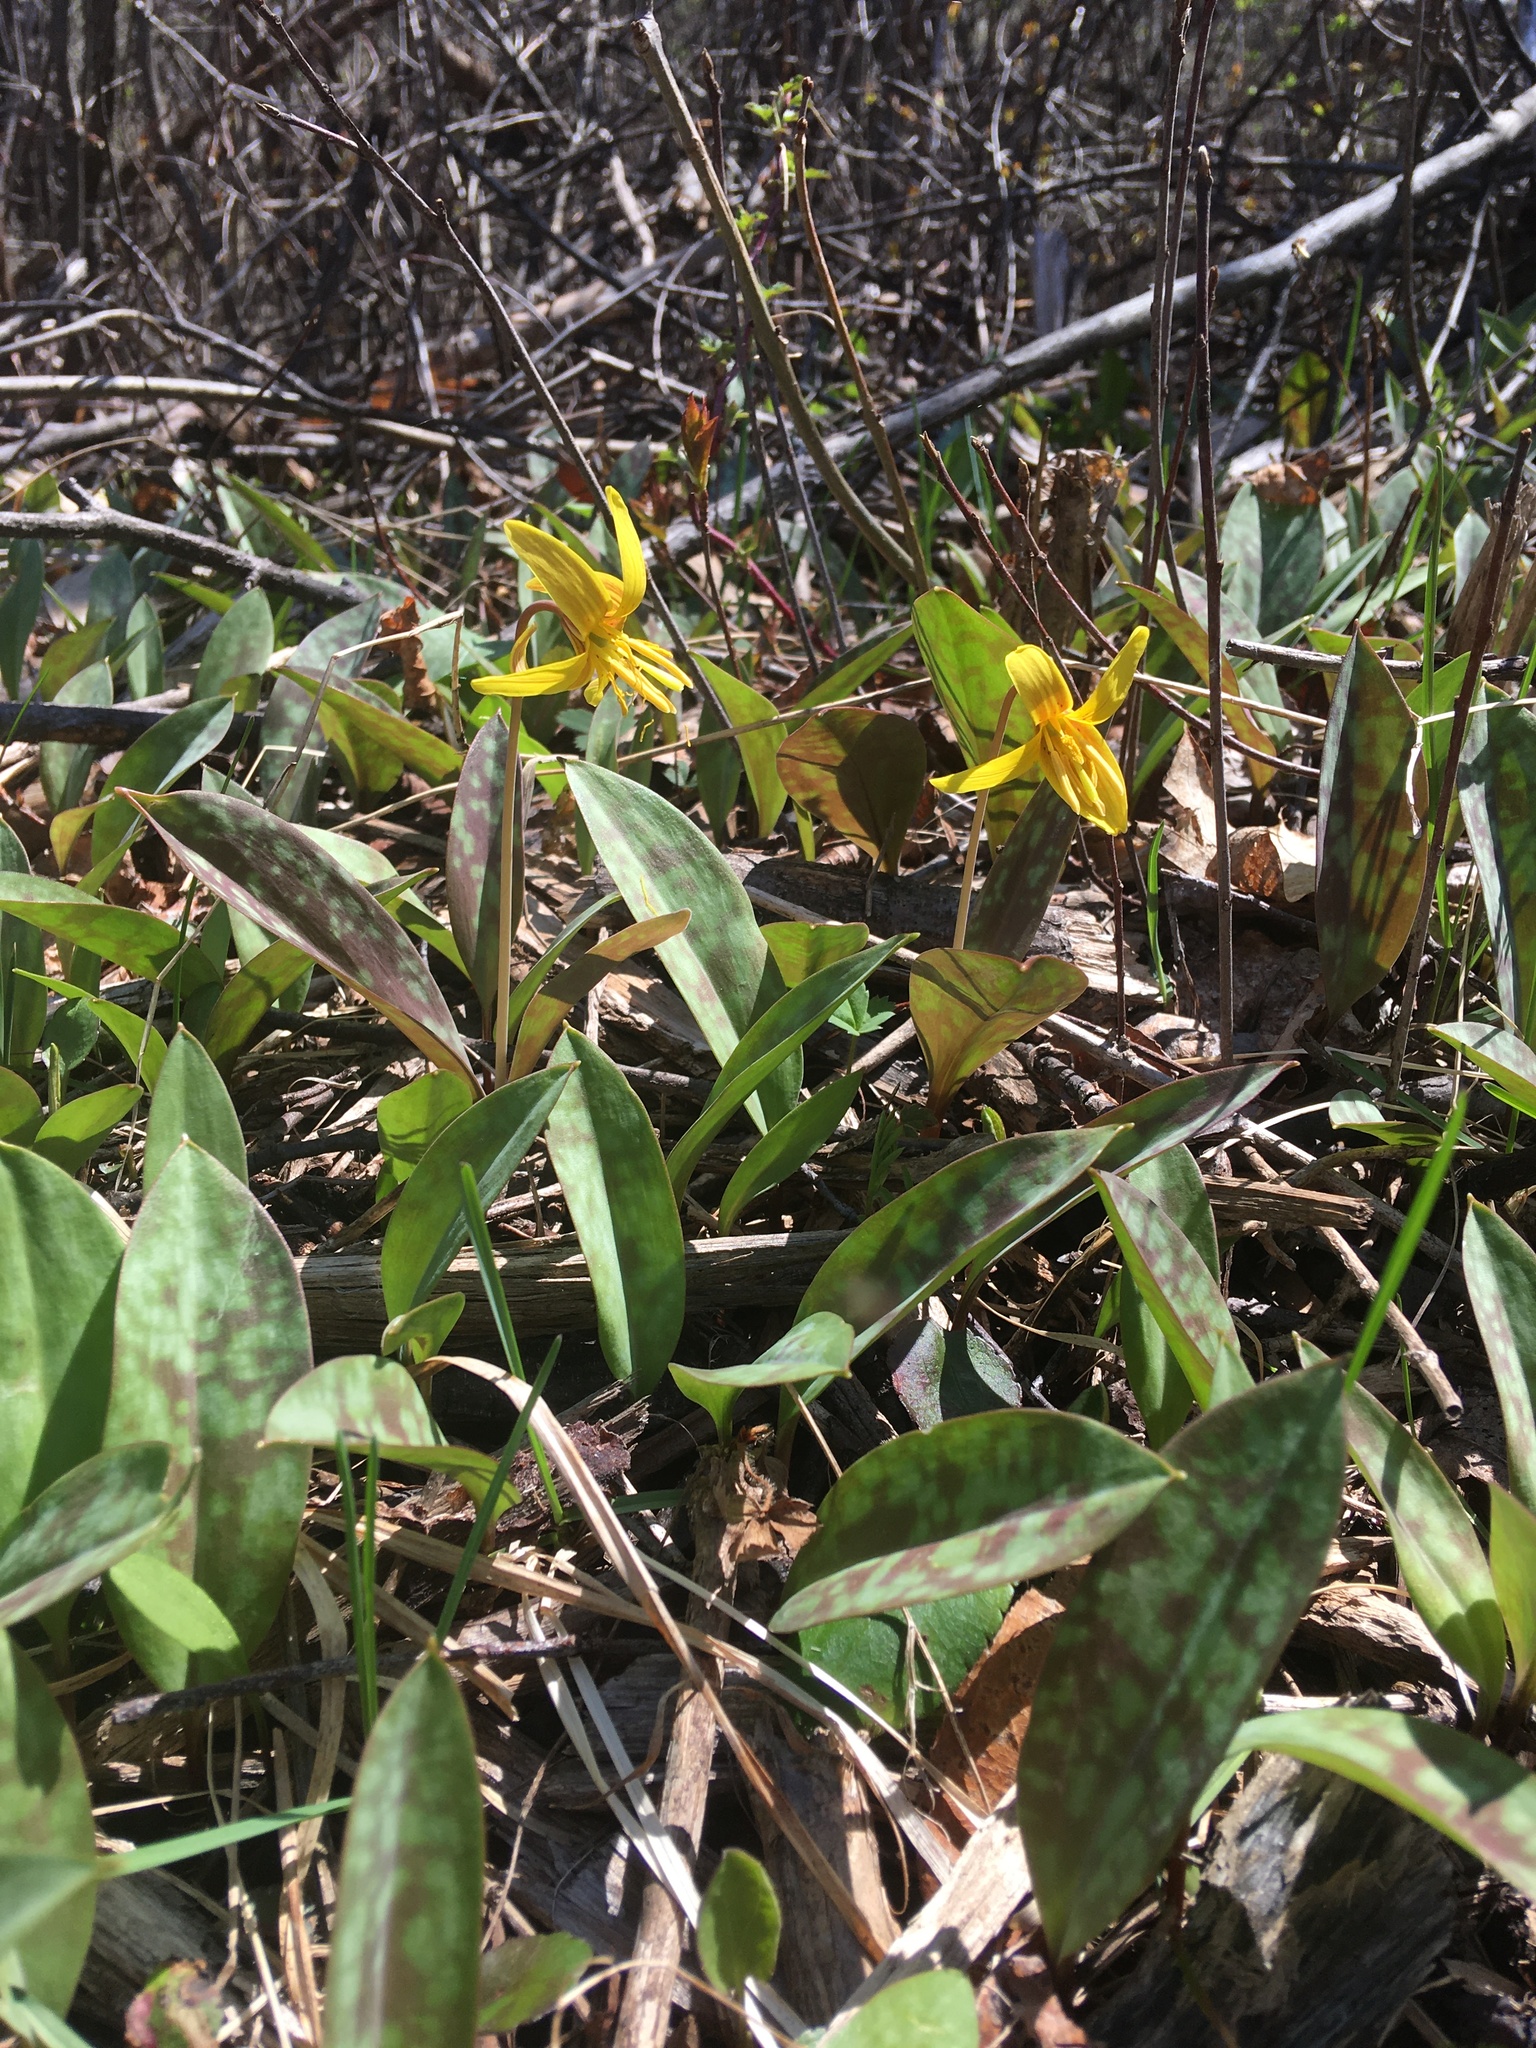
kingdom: Plantae
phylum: Tracheophyta
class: Liliopsida
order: Liliales
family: Liliaceae
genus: Erythronium
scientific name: Erythronium americanum
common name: Yellow adder's-tongue
